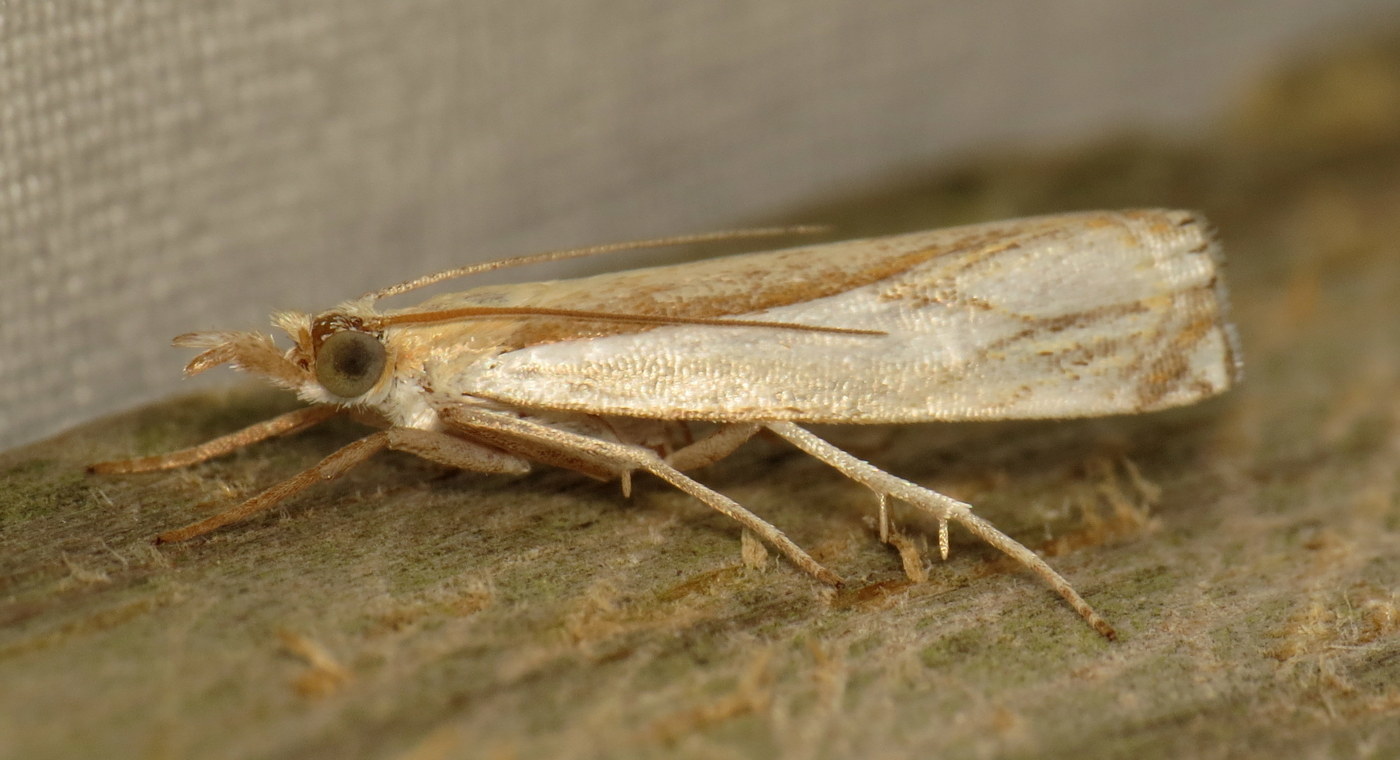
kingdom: Animalia
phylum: Arthropoda
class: Insecta
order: Lepidoptera
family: Crambidae
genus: Crambus
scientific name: Crambus agitatellus
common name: Double-banded grass-veneer
